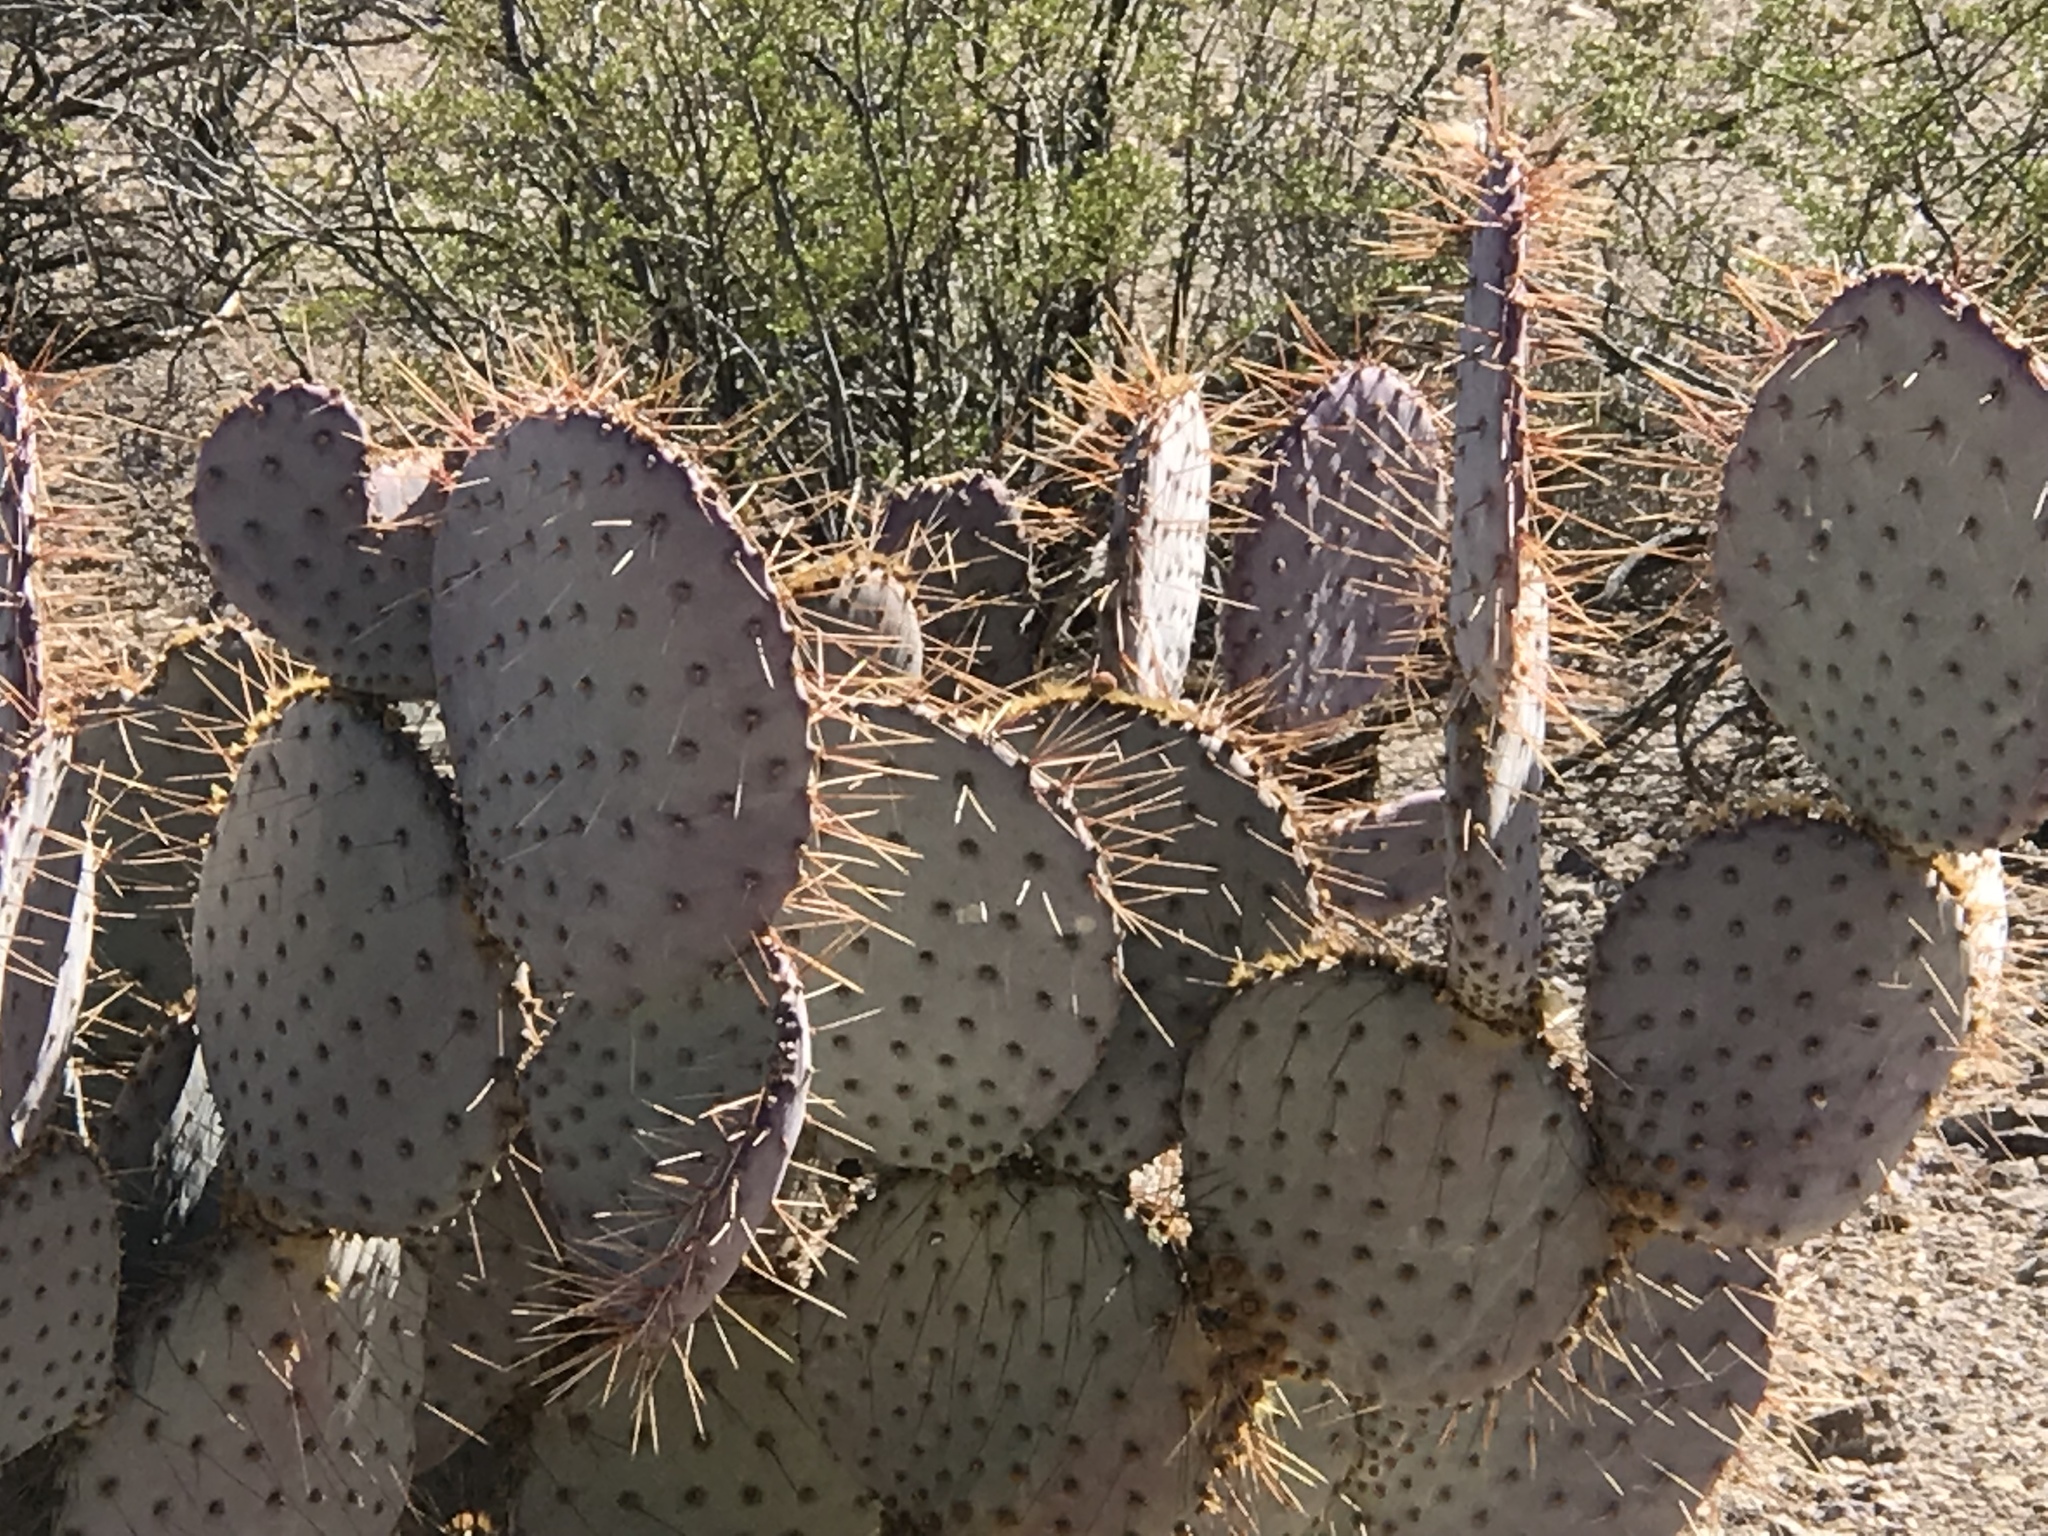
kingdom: Plantae
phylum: Tracheophyta
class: Magnoliopsida
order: Caryophyllales
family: Cactaceae
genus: Opuntia
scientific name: Opuntia macrocentra
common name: Purple prickly-pear
